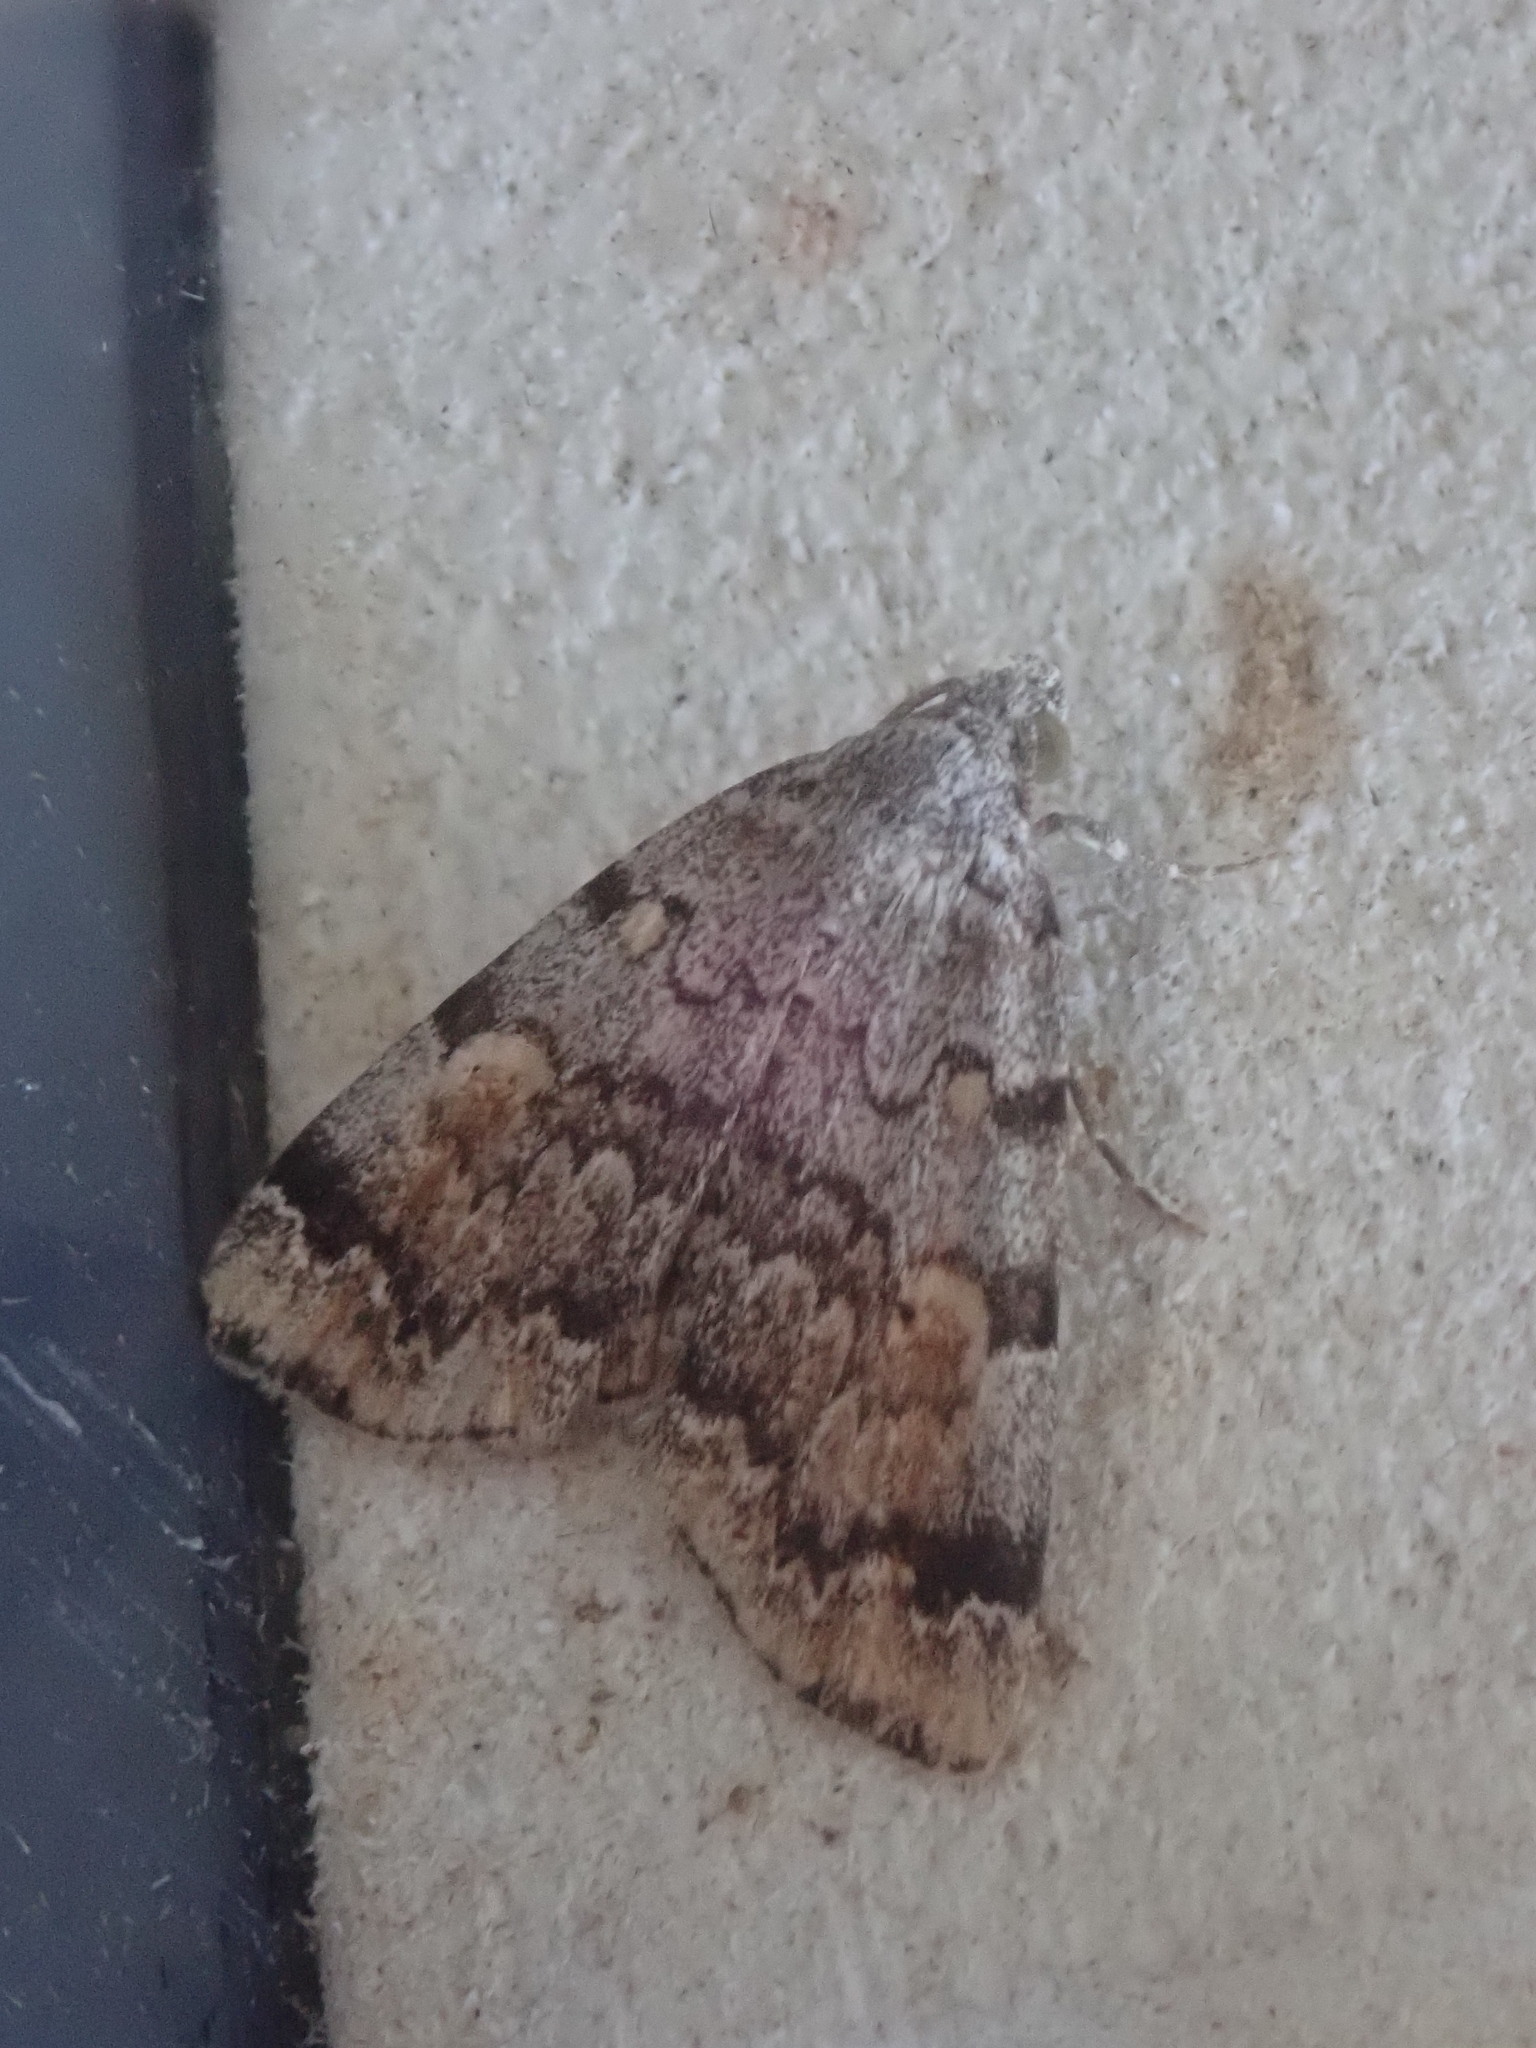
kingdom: Animalia
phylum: Arthropoda
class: Insecta
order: Lepidoptera
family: Erebidae
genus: Idia
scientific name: Idia americalis
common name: American idia moth
